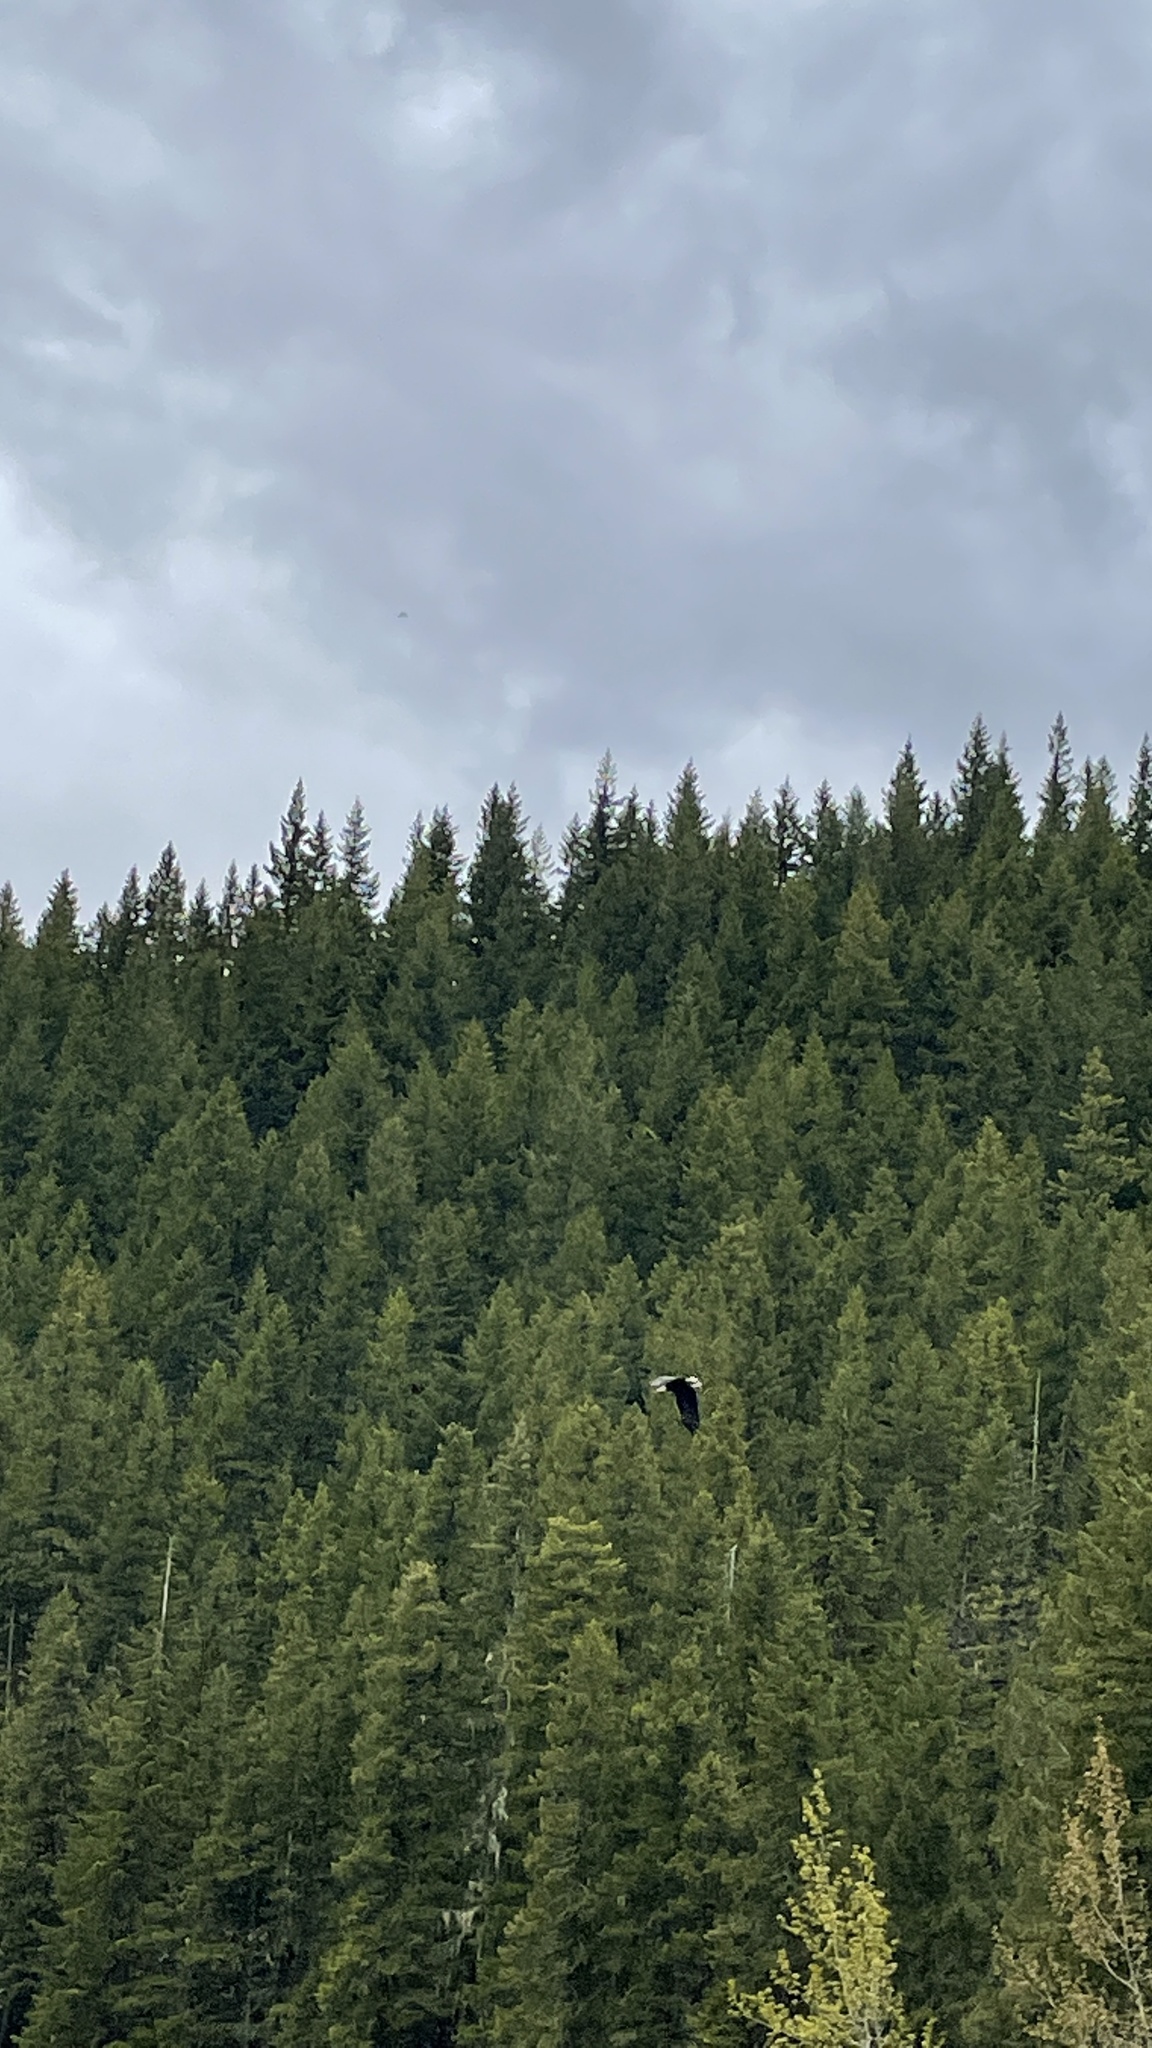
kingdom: Animalia
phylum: Chordata
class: Aves
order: Accipitriformes
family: Accipitridae
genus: Haliaeetus
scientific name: Haliaeetus leucocephalus
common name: Bald eagle
